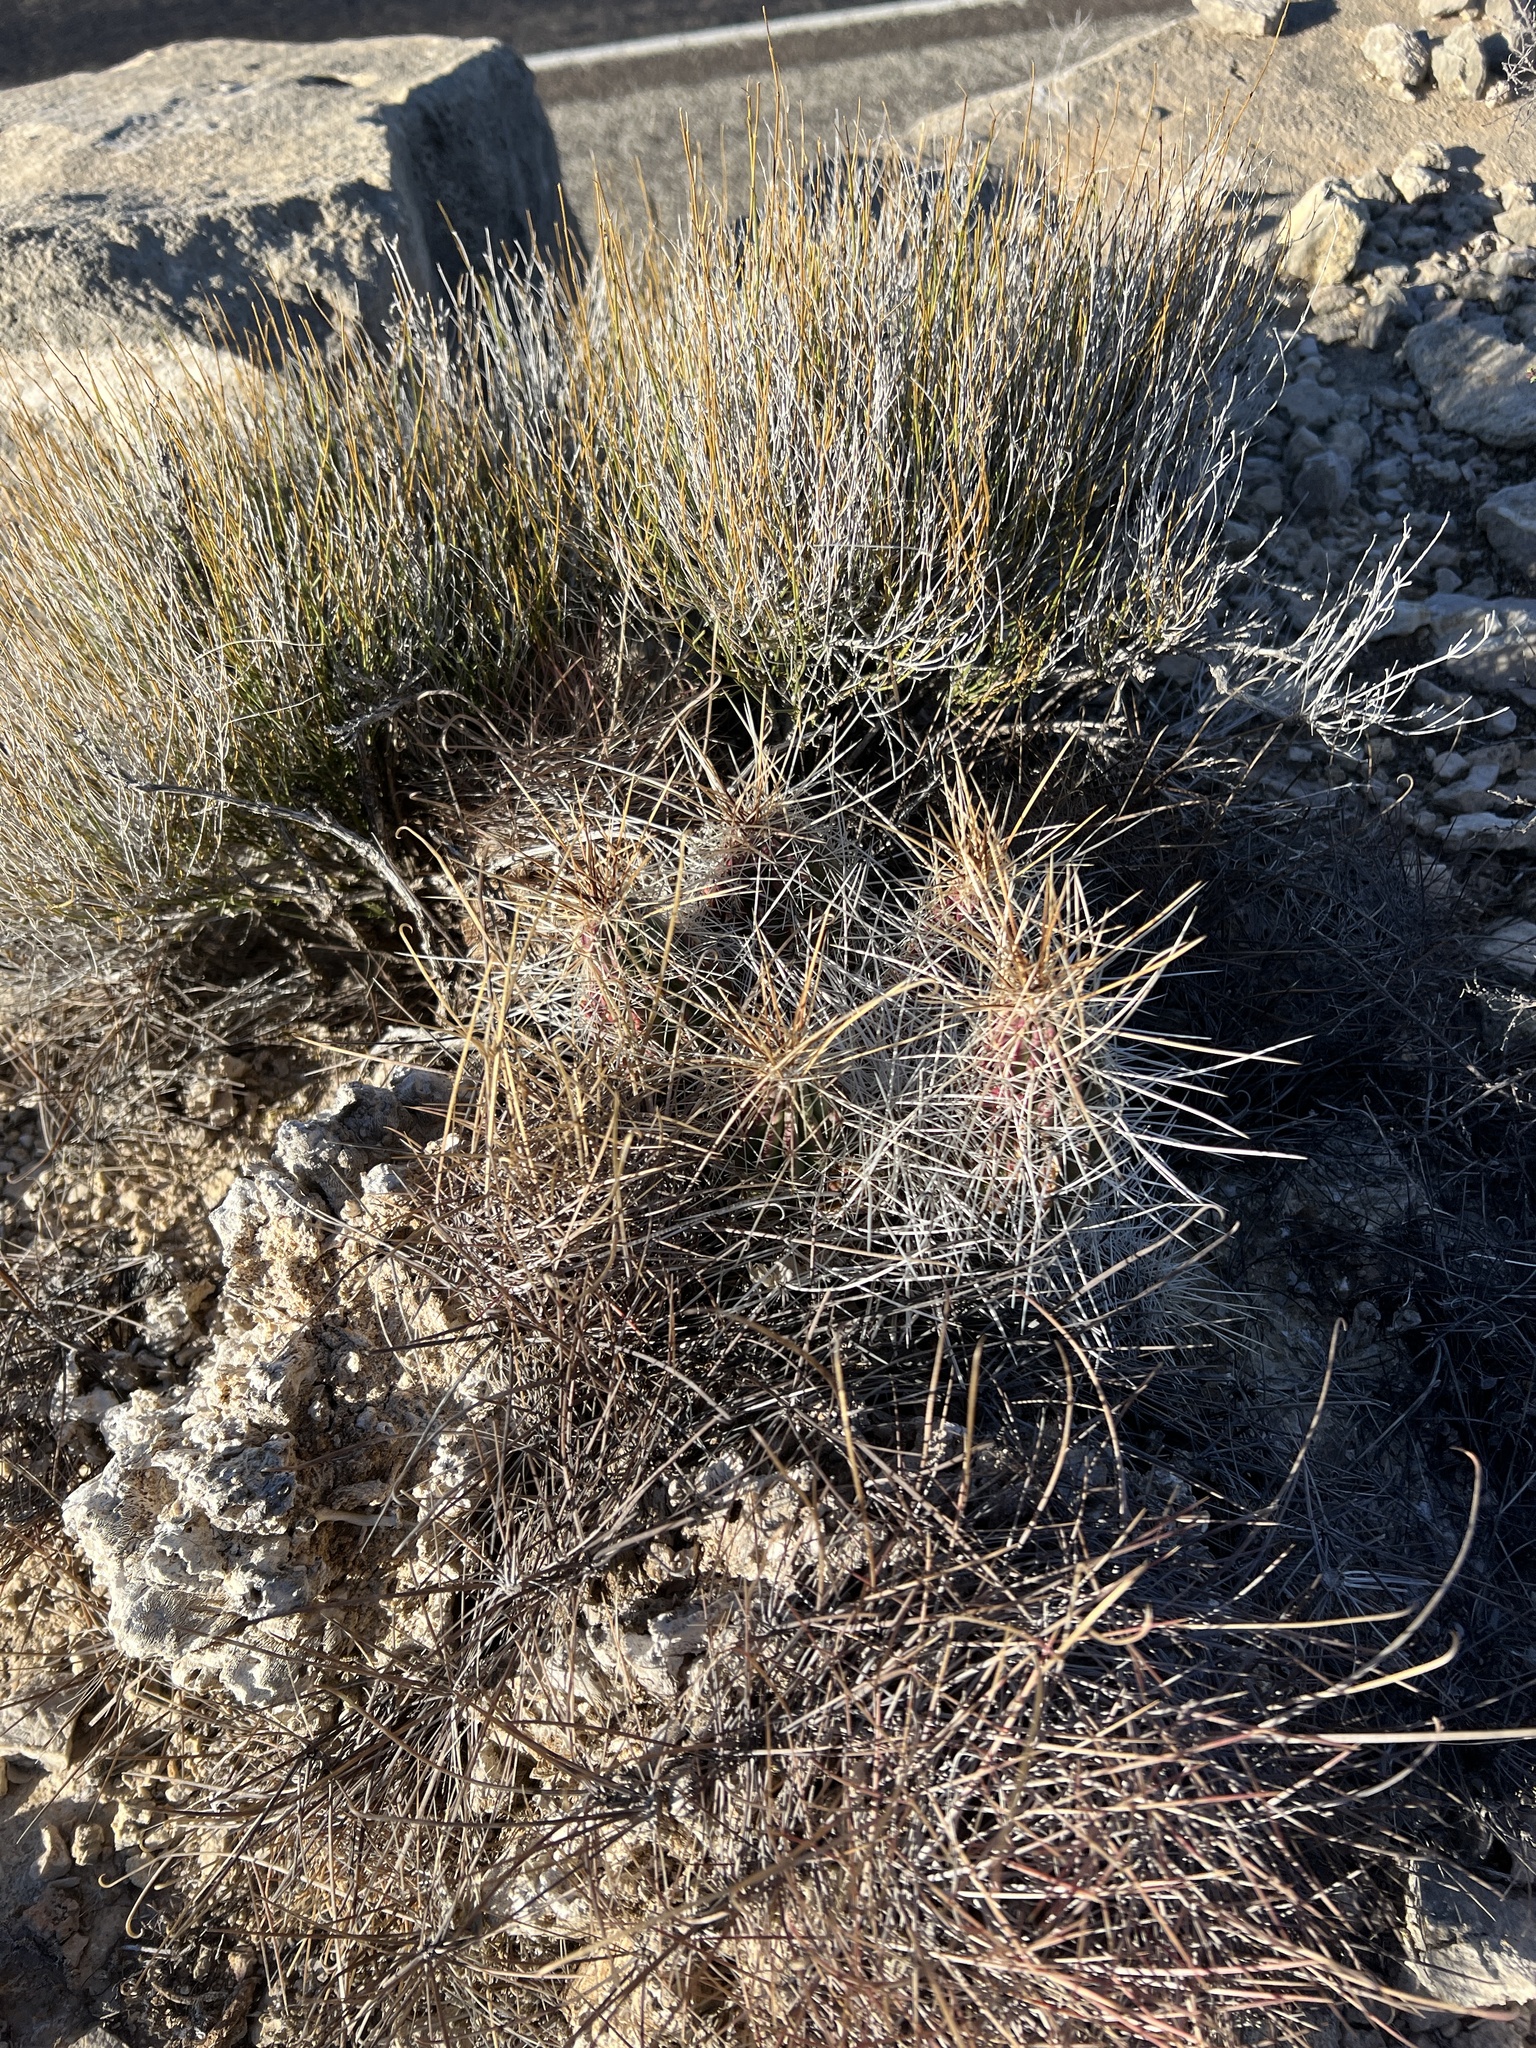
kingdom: Plantae
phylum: Tracheophyta
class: Magnoliopsida
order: Caryophyllales
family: Cactaceae
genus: Echinocereus
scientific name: Echinocereus stramineus
